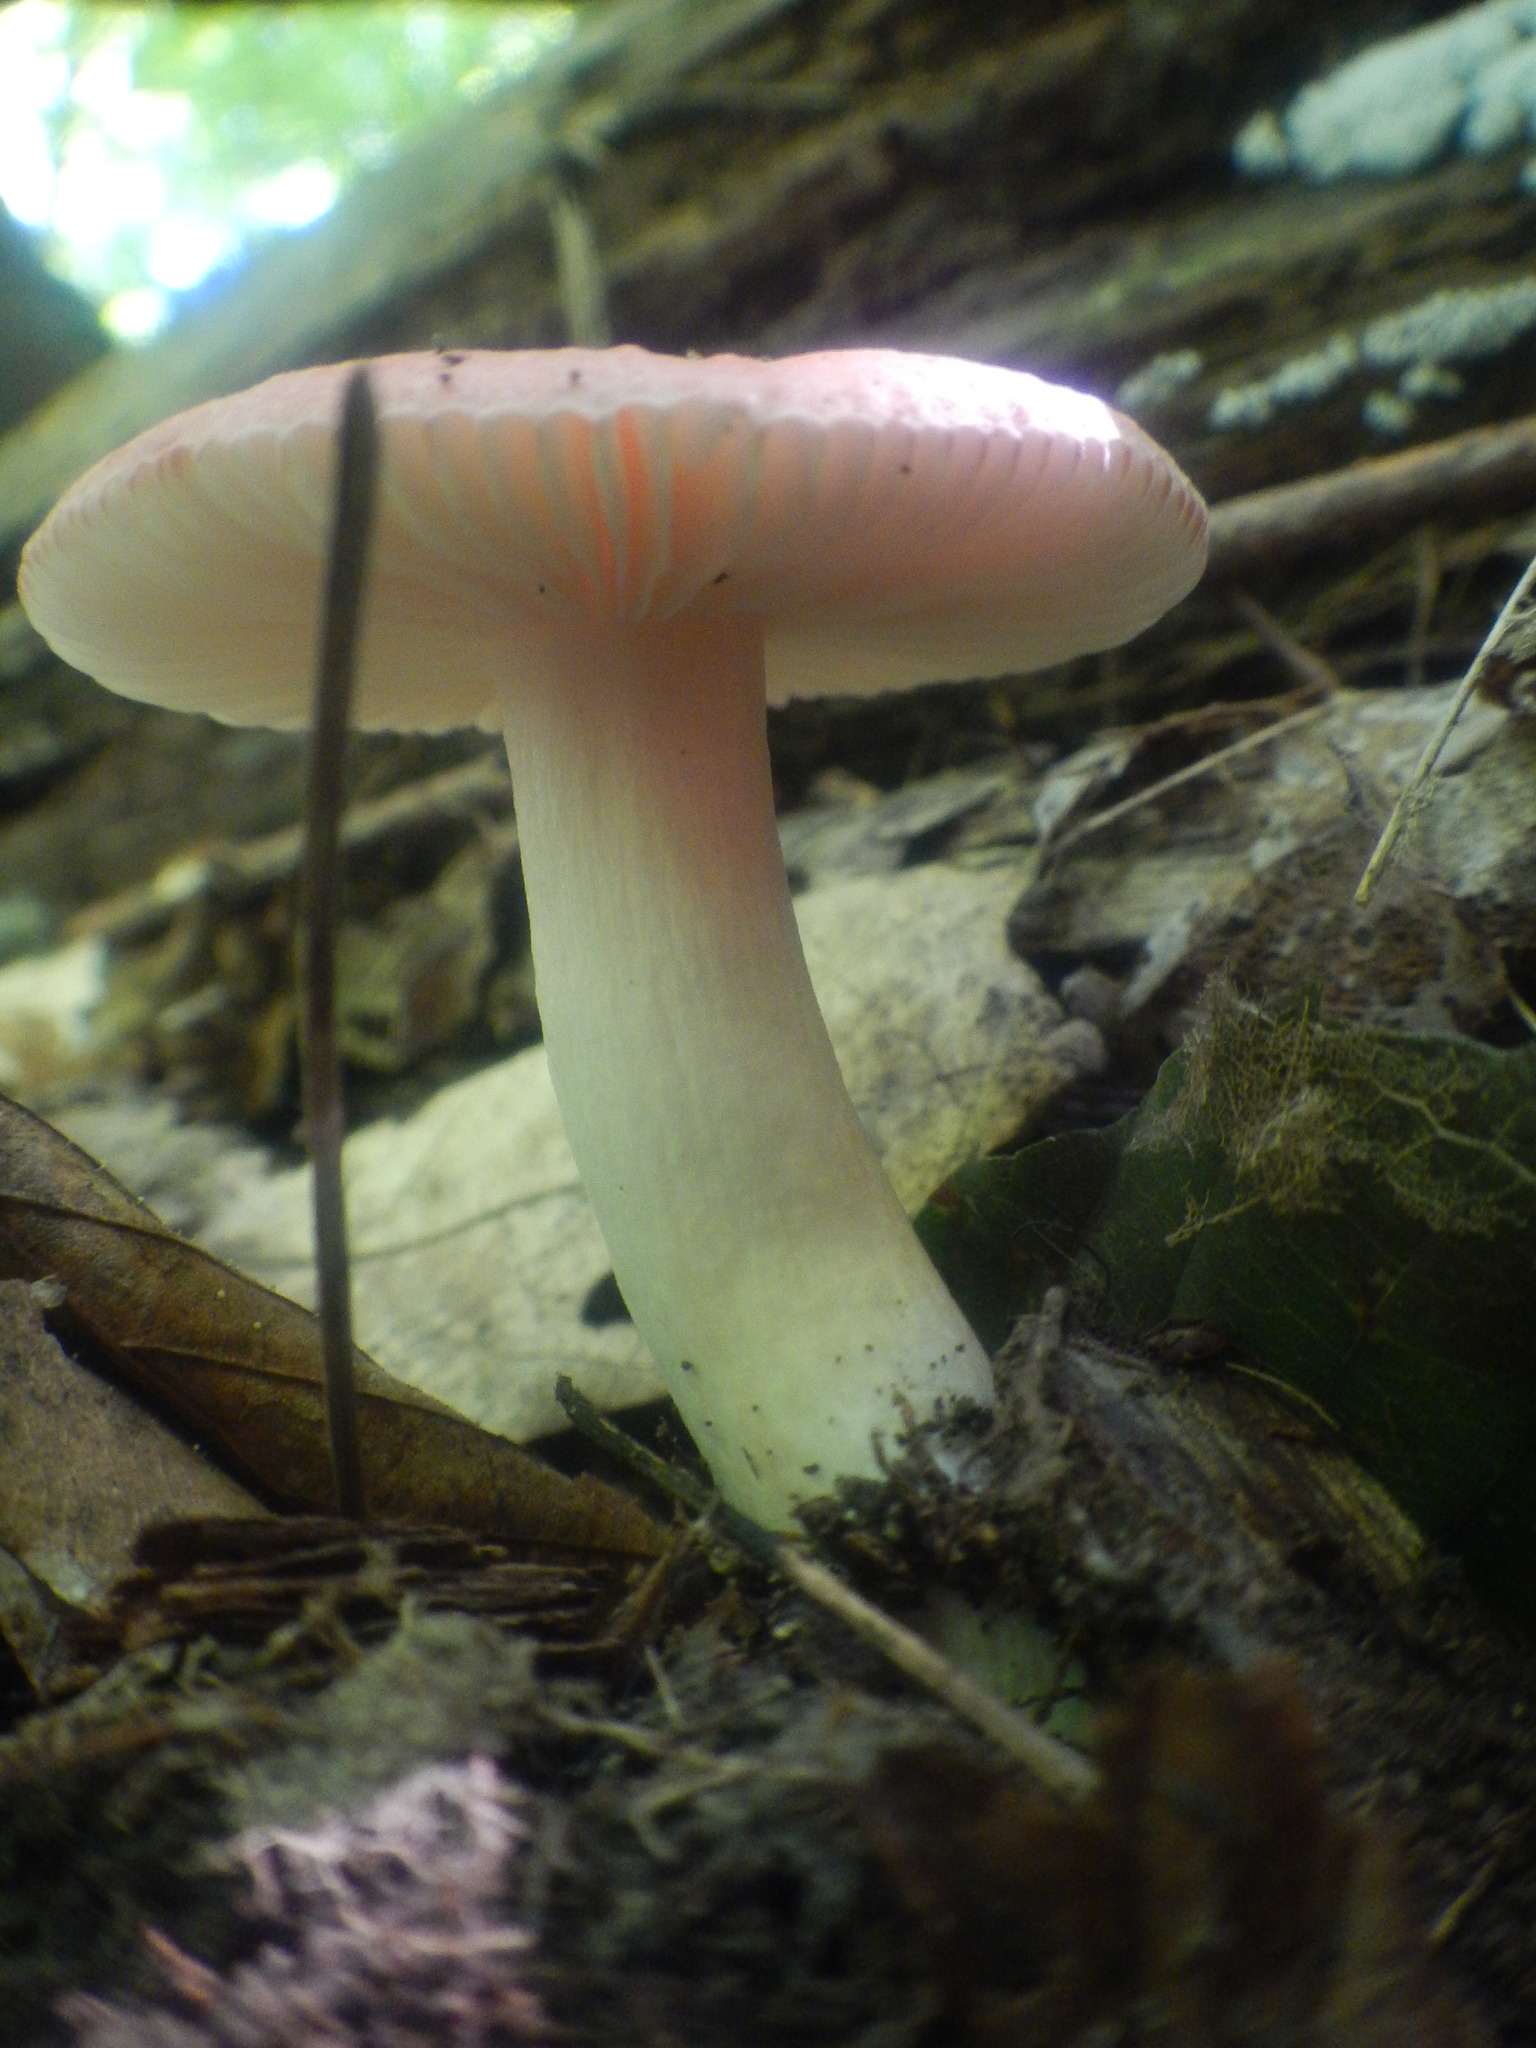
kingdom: Fungi
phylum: Basidiomycota
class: Agaricomycetes
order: Russulales
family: Russulaceae
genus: Russula
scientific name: Russula
